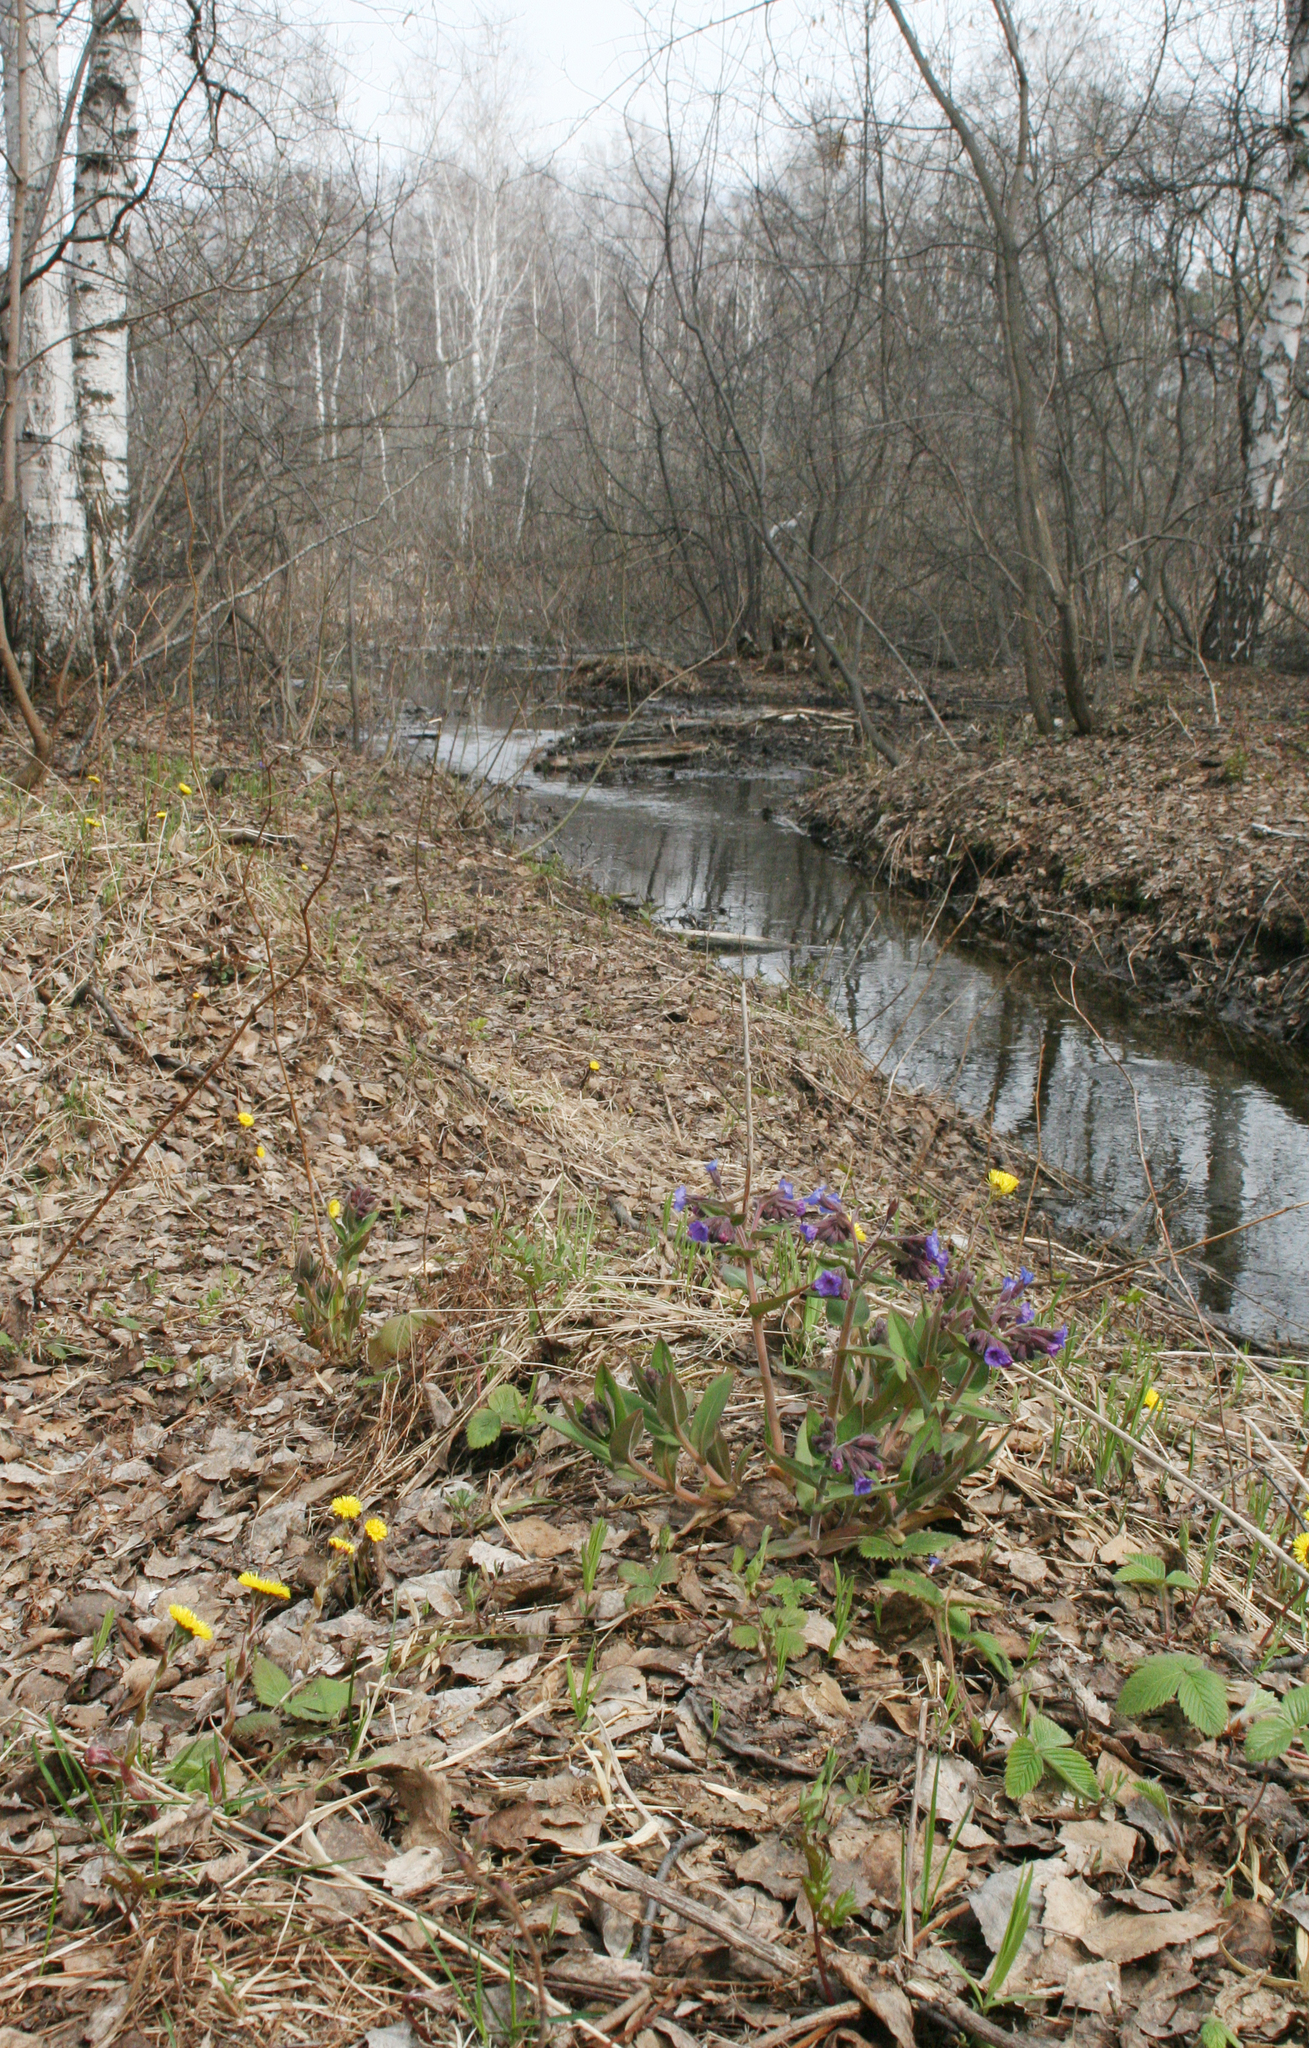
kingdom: Plantae
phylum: Tracheophyta
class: Magnoliopsida
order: Boraginales
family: Boraginaceae
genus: Pulmonaria
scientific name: Pulmonaria mollis
